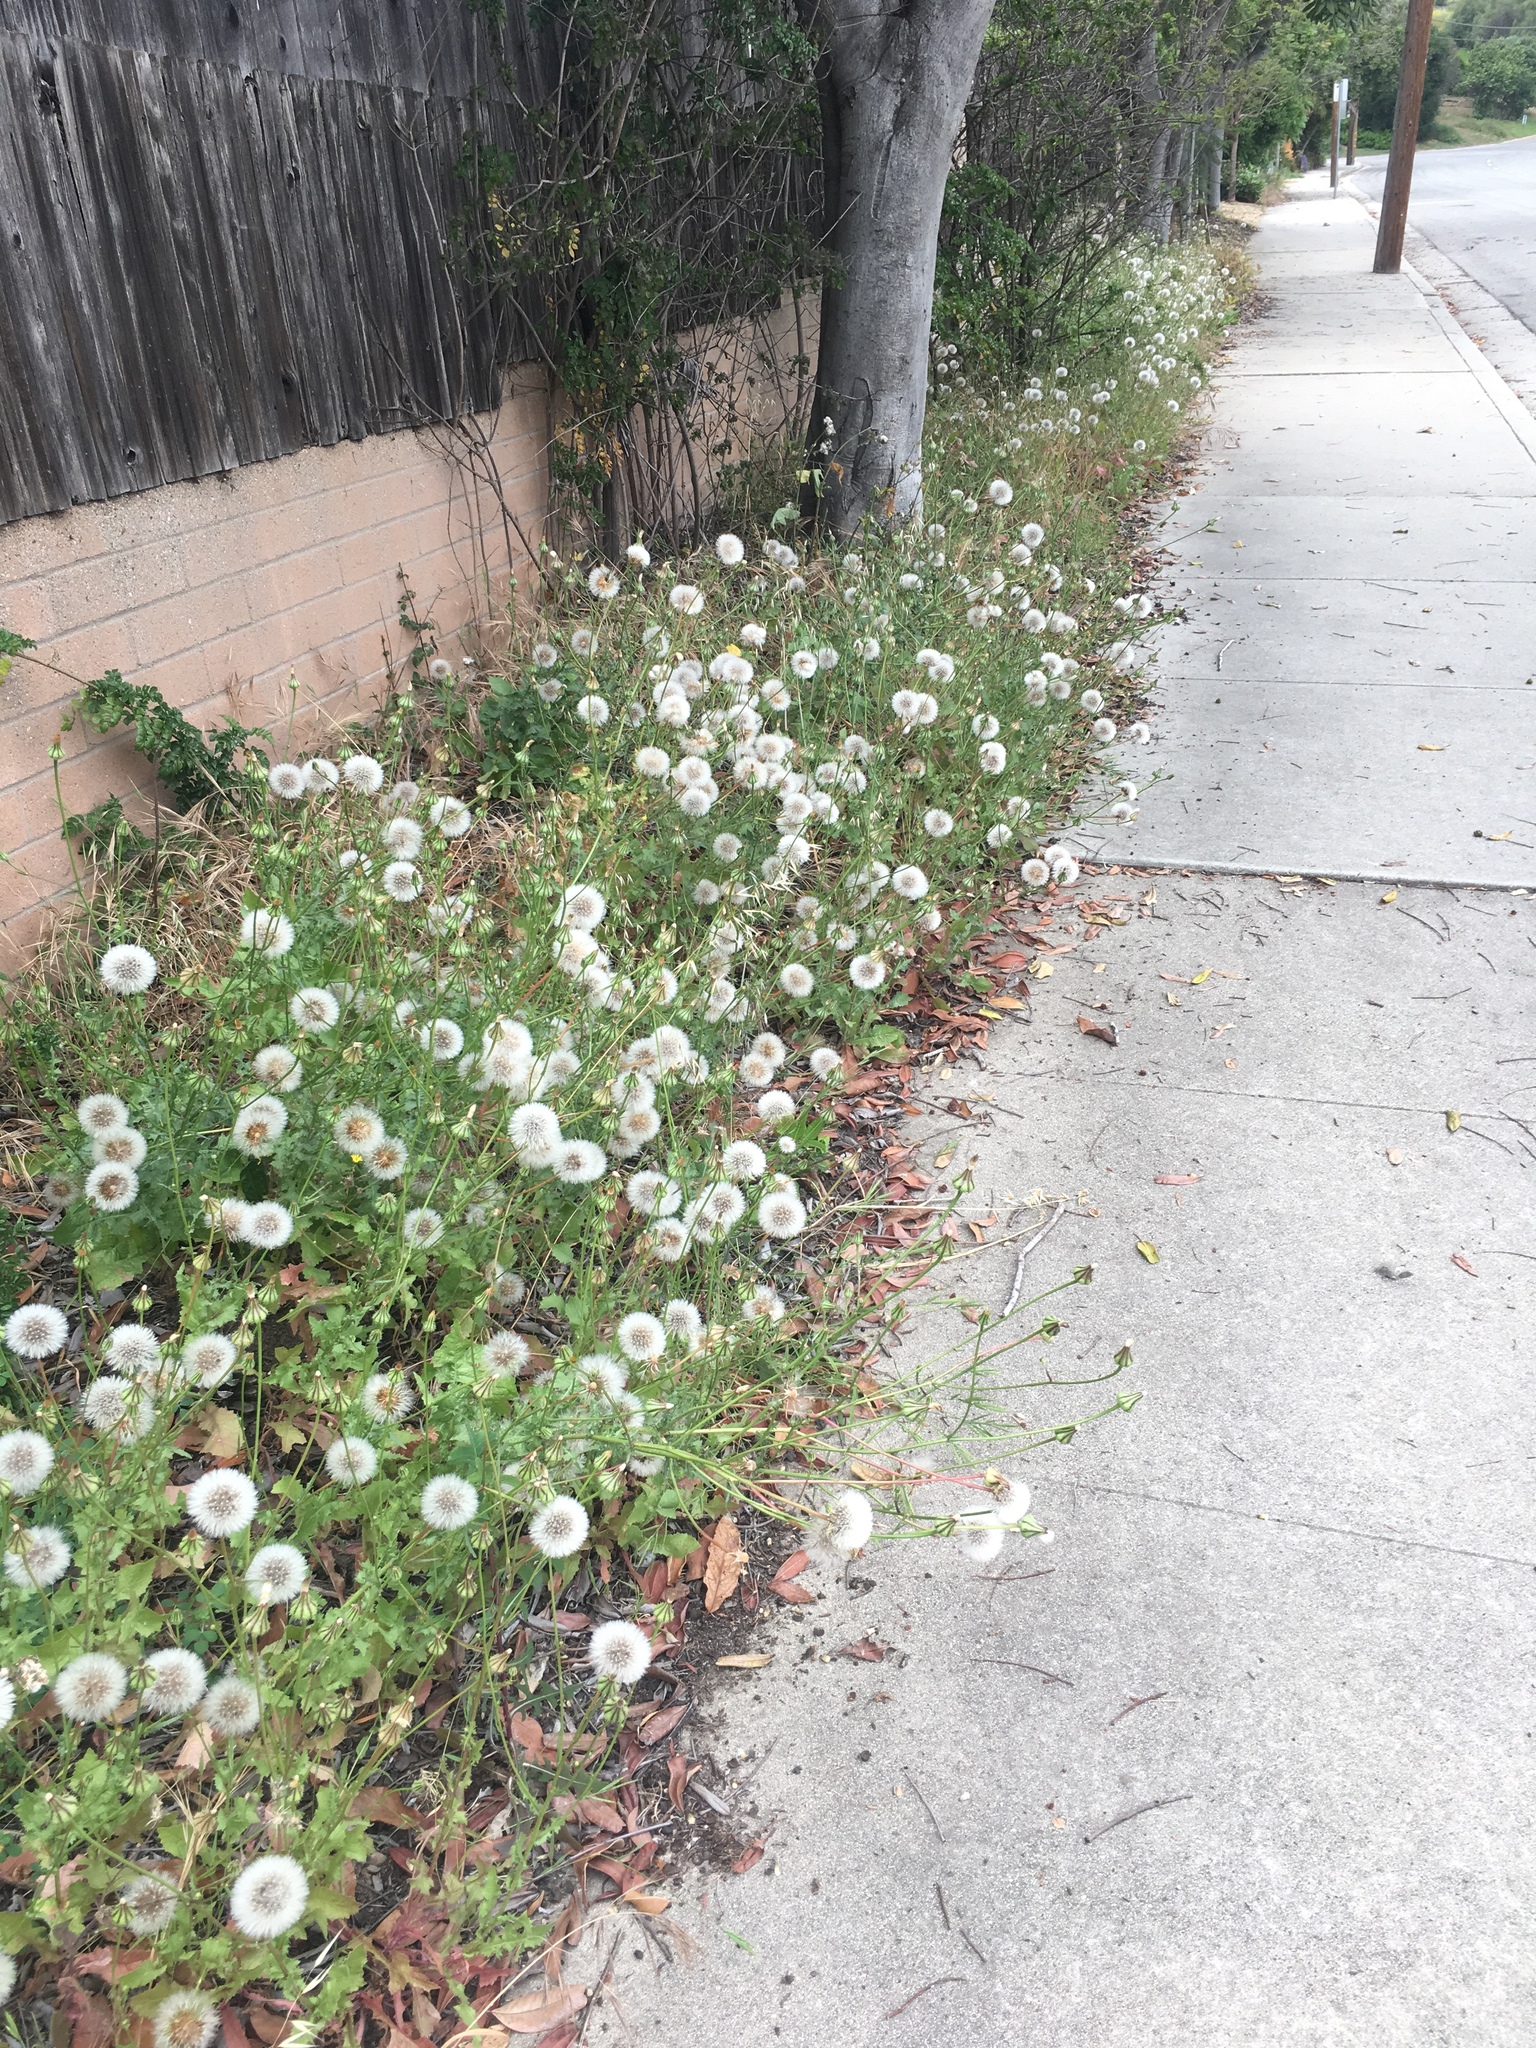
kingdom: Plantae
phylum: Tracheophyta
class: Magnoliopsida
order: Asterales
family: Asteraceae
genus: Urospermum
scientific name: Urospermum picroides
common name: False hawkbit
